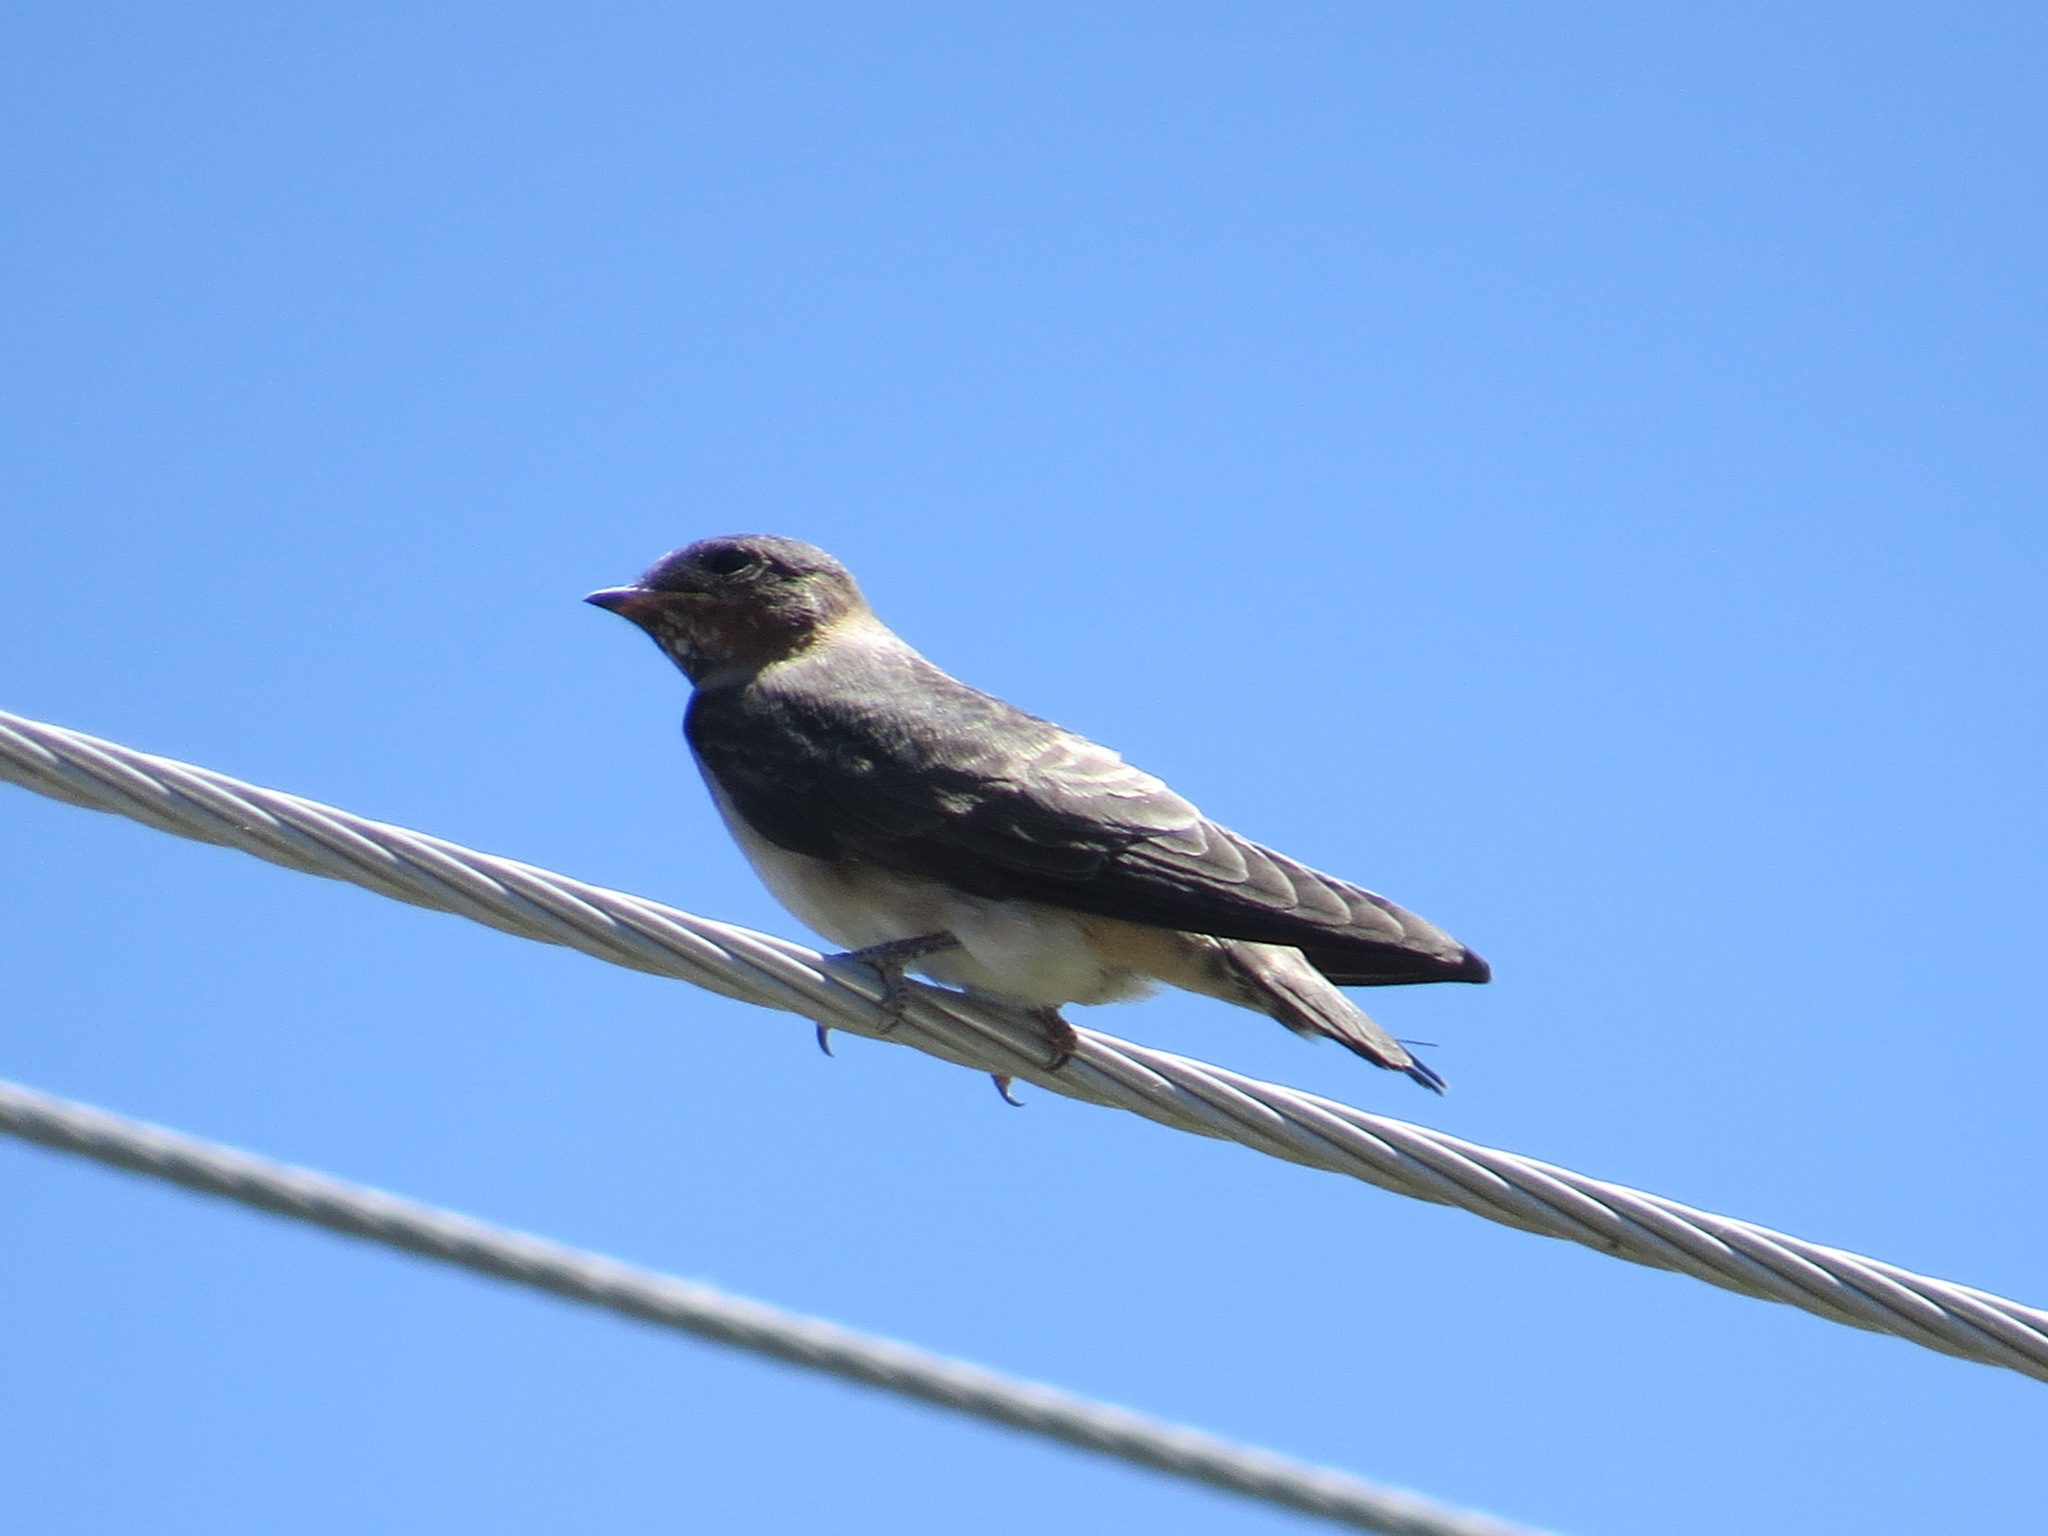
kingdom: Animalia
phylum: Chordata
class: Aves
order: Passeriformes
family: Hirundinidae
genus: Petrochelidon
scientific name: Petrochelidon pyrrhonota
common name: American cliff swallow
